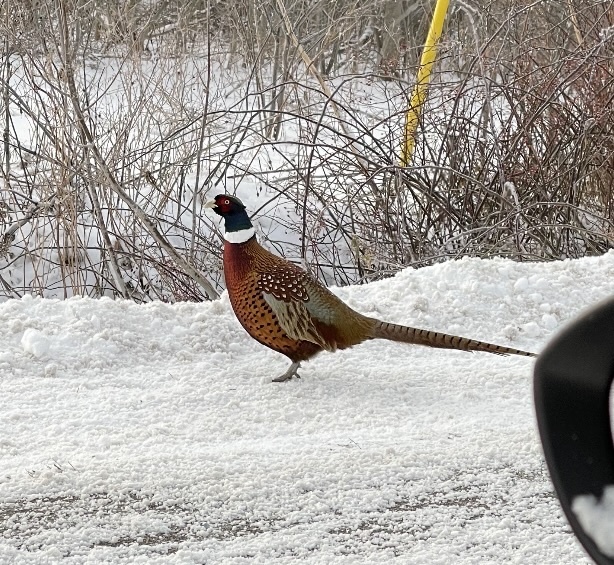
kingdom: Animalia
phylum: Chordata
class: Aves
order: Galliformes
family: Phasianidae
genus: Phasianus
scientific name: Phasianus colchicus
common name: Common pheasant
